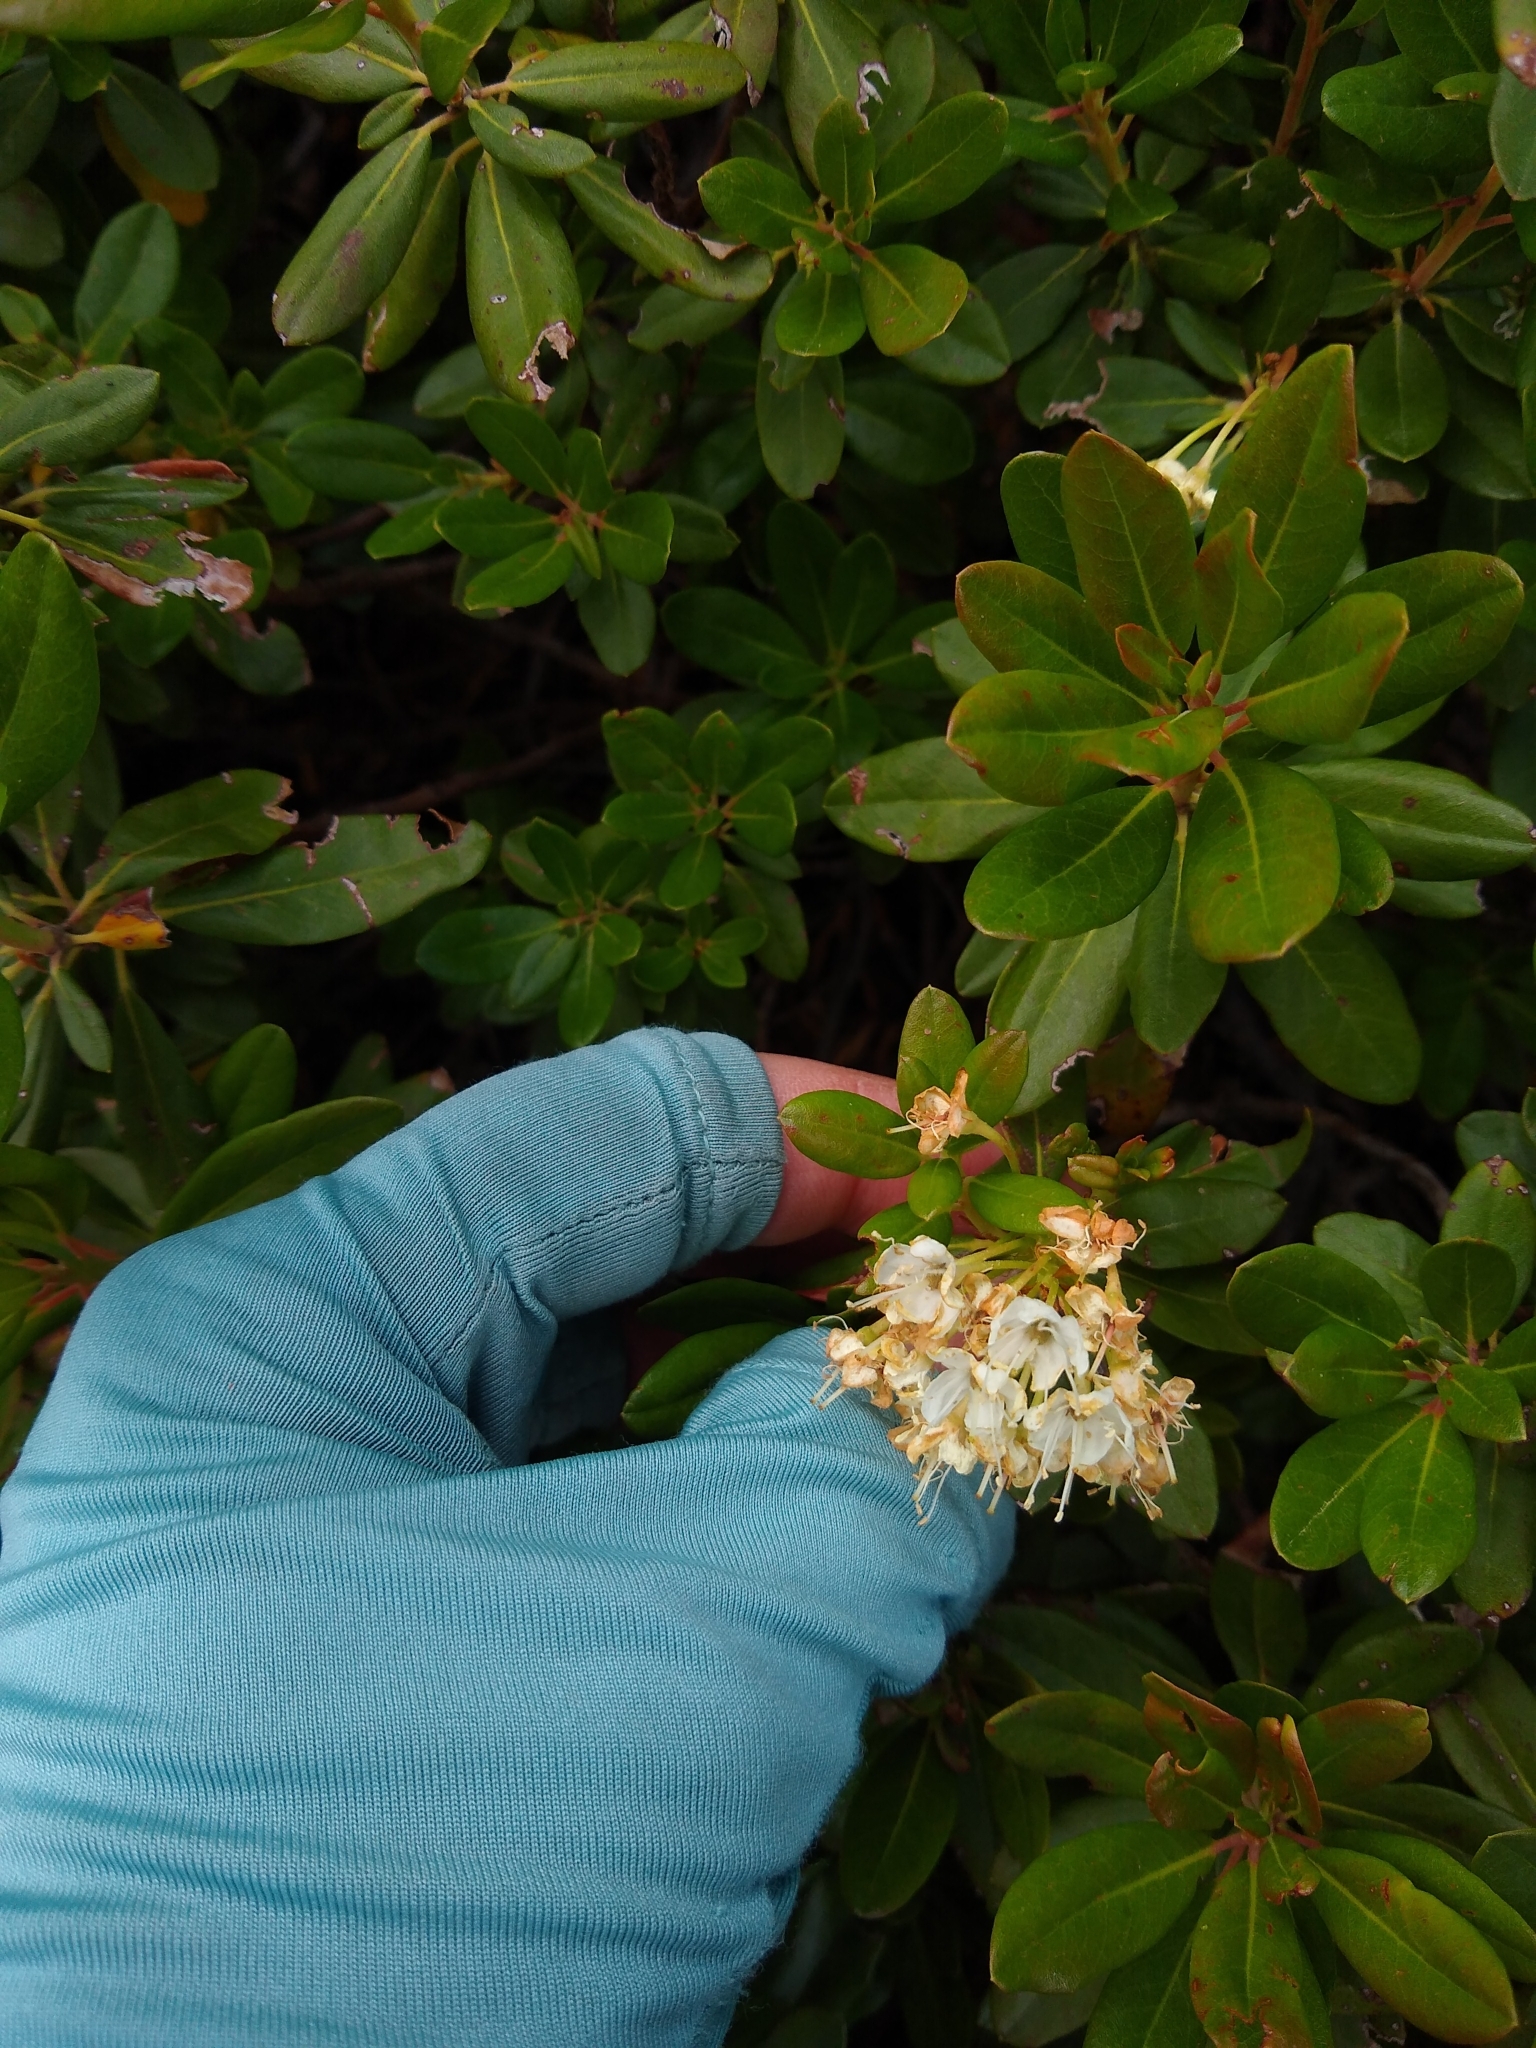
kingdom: Plantae
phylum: Tracheophyta
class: Magnoliopsida
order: Ericales
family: Ericaceae
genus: Rhododendron
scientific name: Rhododendron columbianum
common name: Western labrador tea
